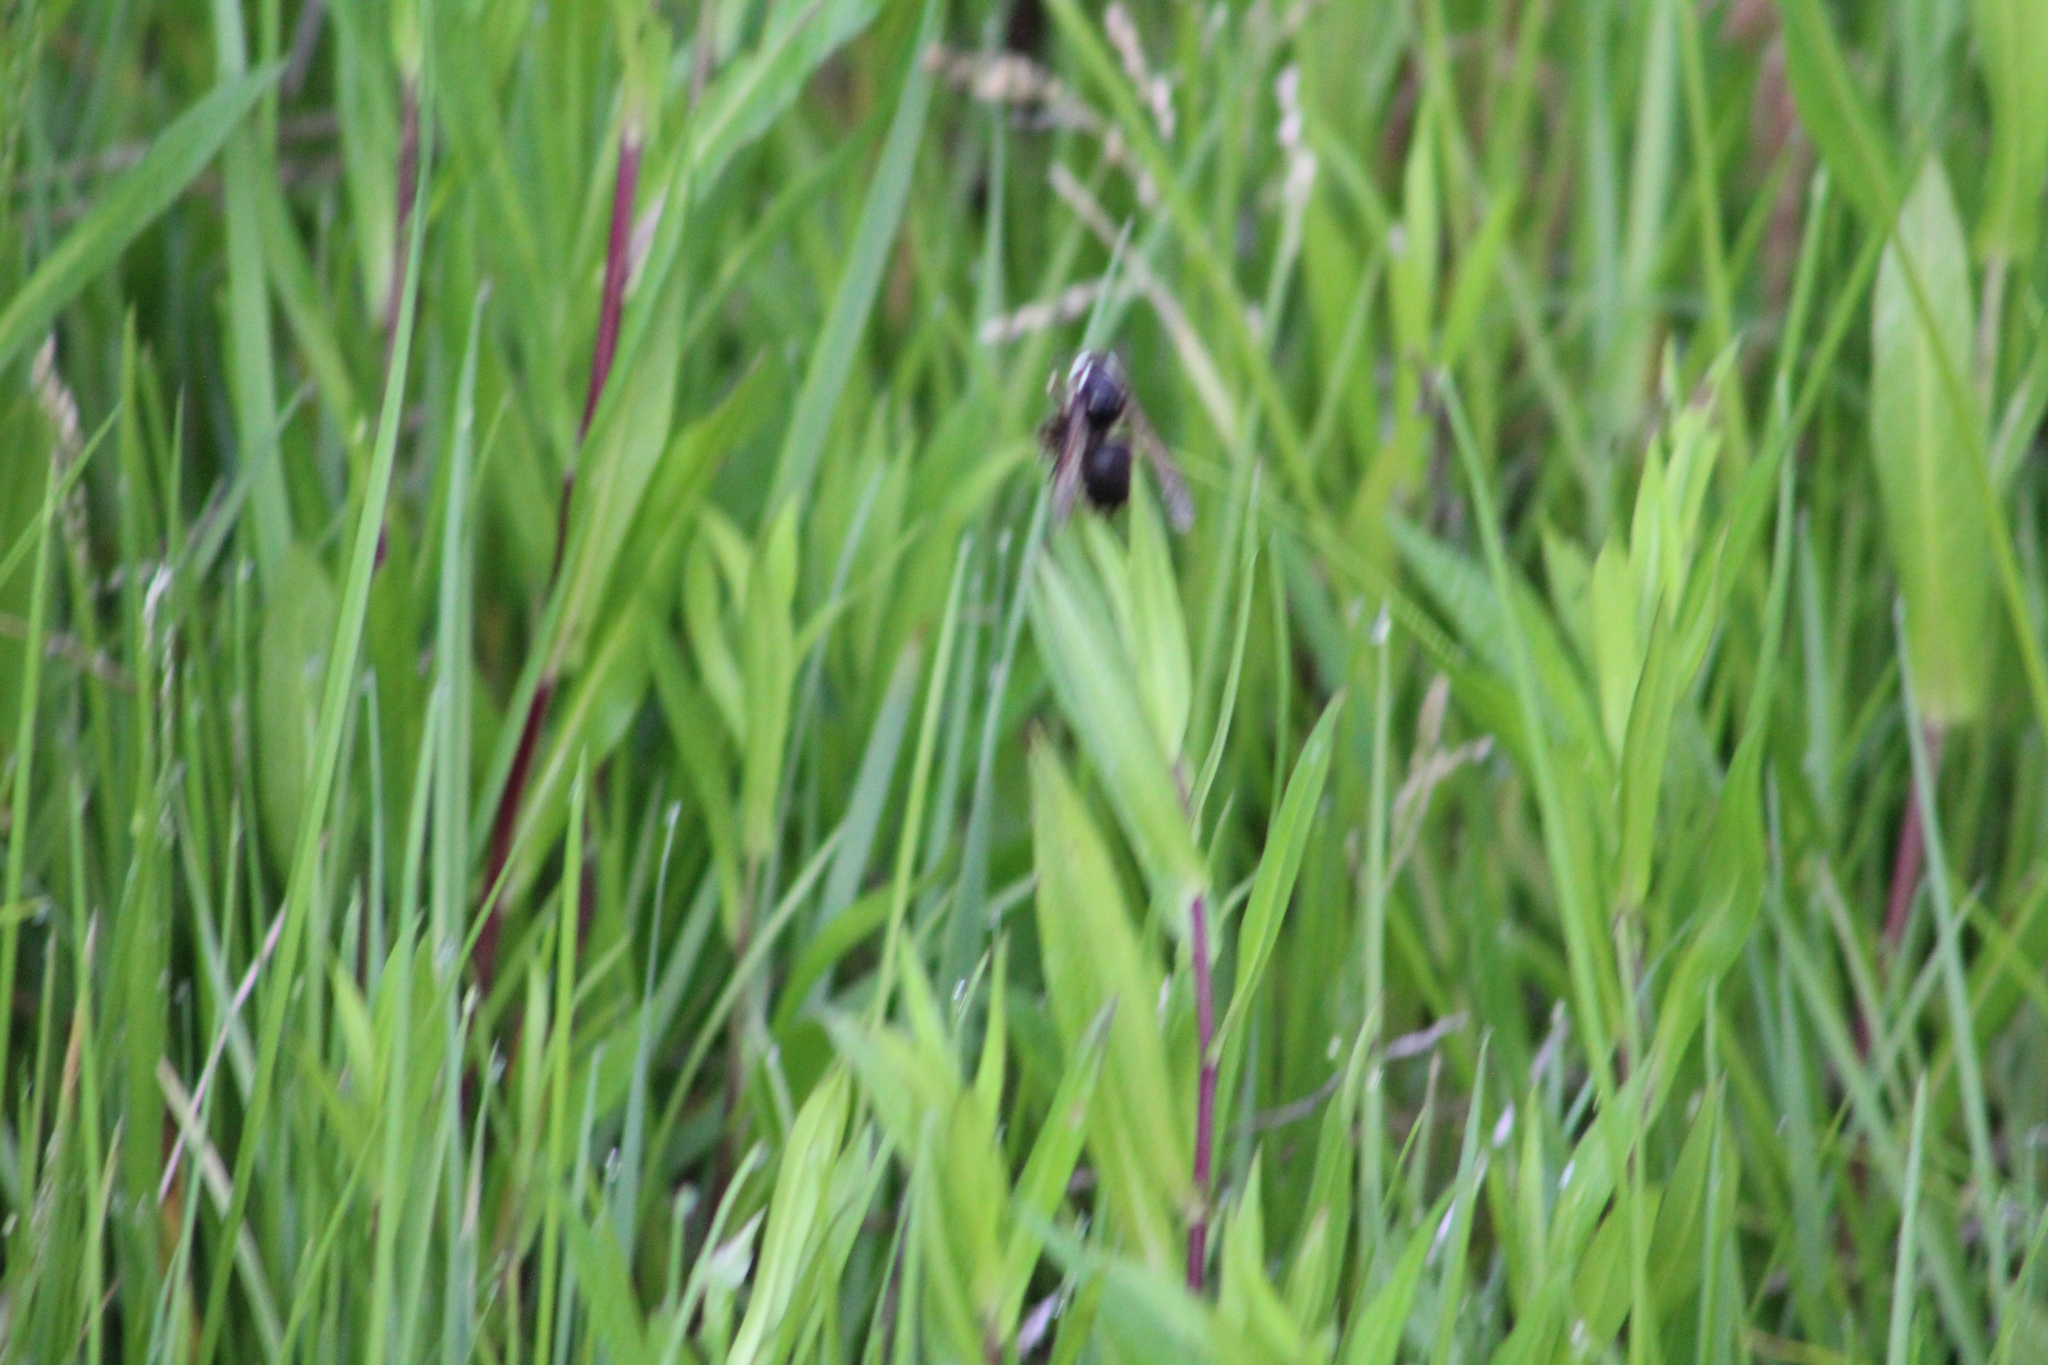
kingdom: Animalia
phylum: Arthropoda
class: Insecta
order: Hymenoptera
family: Vespidae
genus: Dolichovespula
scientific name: Dolichovespula maculata
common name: Bald-faced hornet
